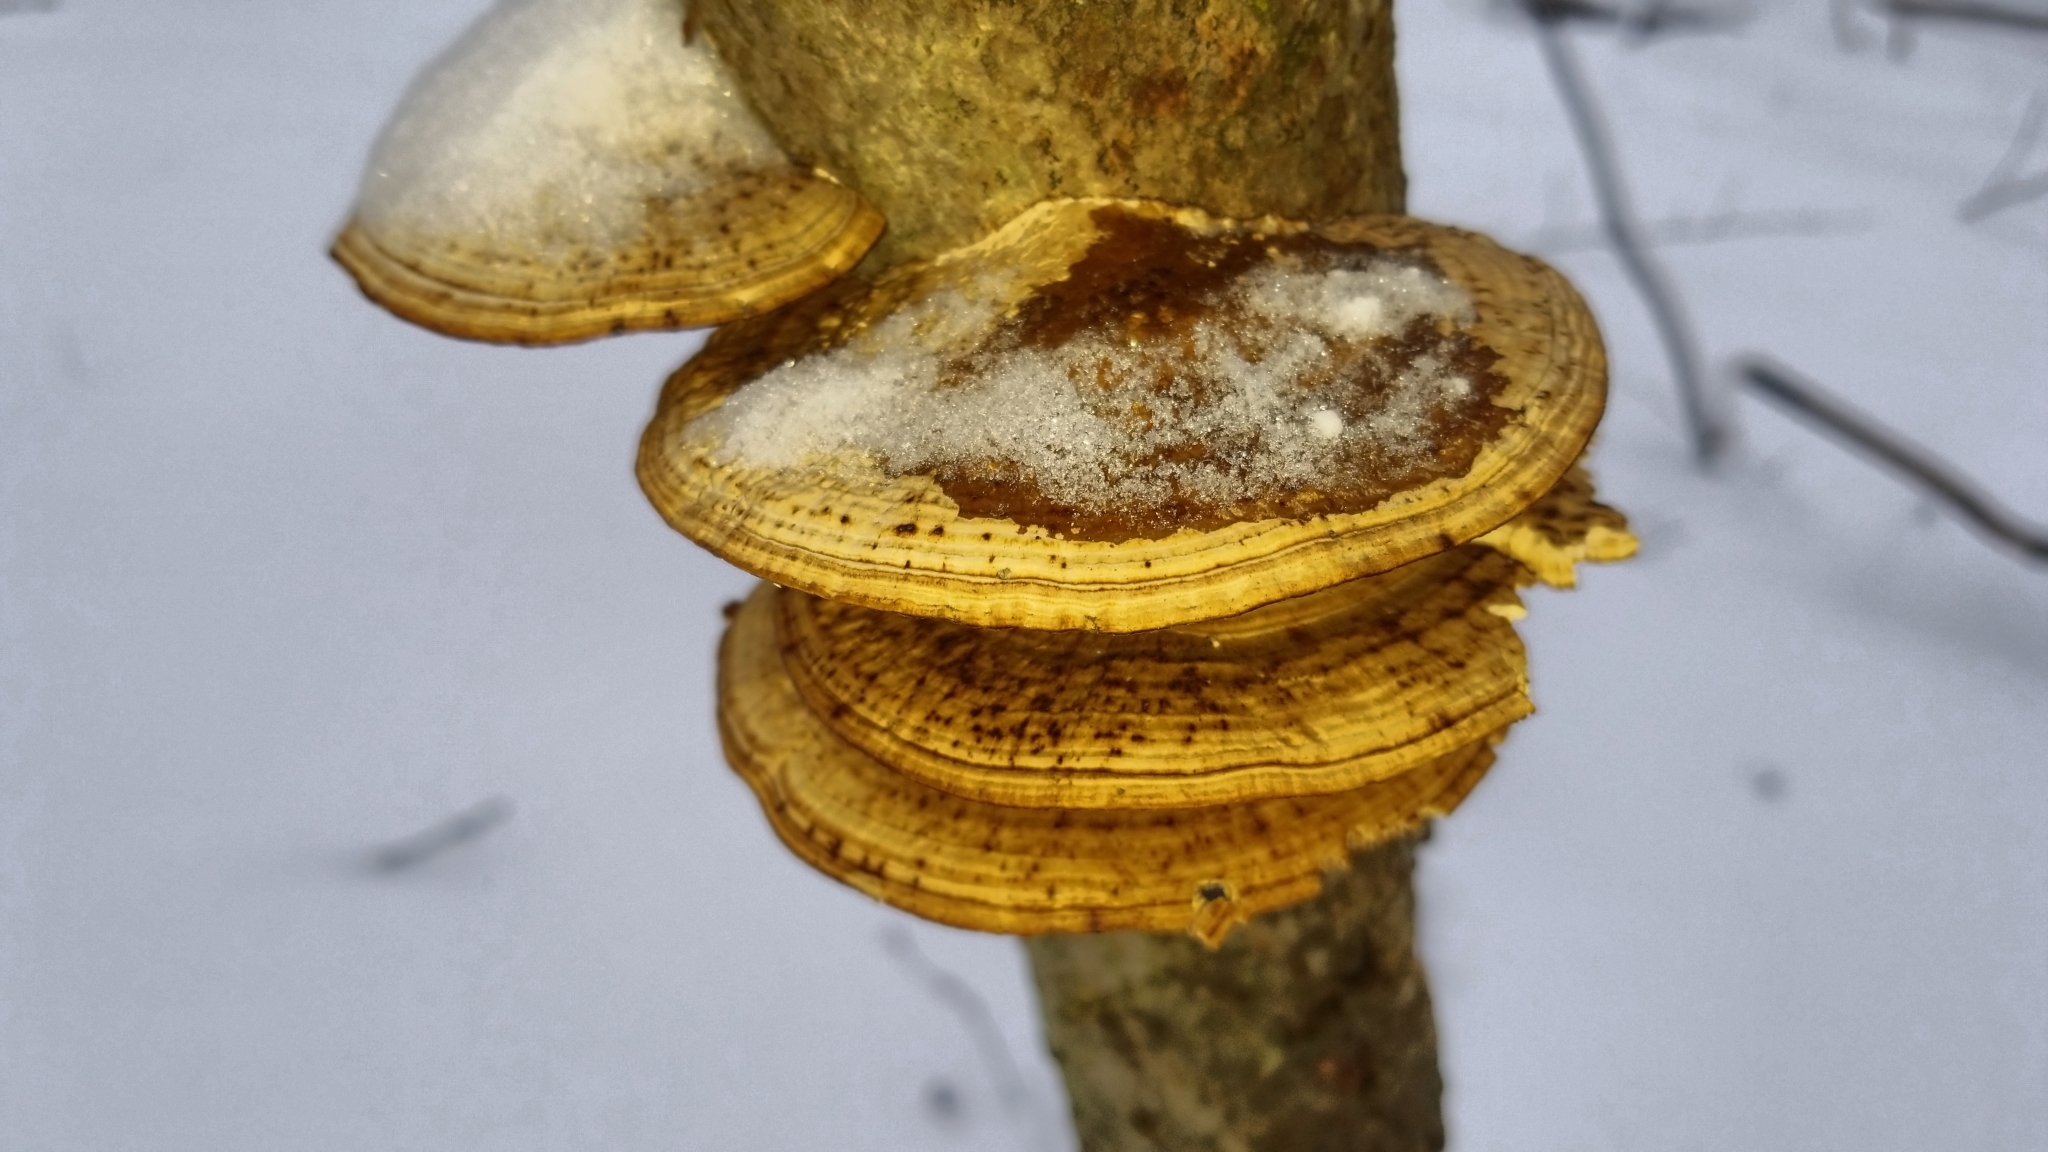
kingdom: Fungi
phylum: Basidiomycota
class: Agaricomycetes
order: Polyporales
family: Polyporaceae
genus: Daedaleopsis
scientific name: Daedaleopsis confragosa
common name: Blushing bracket
